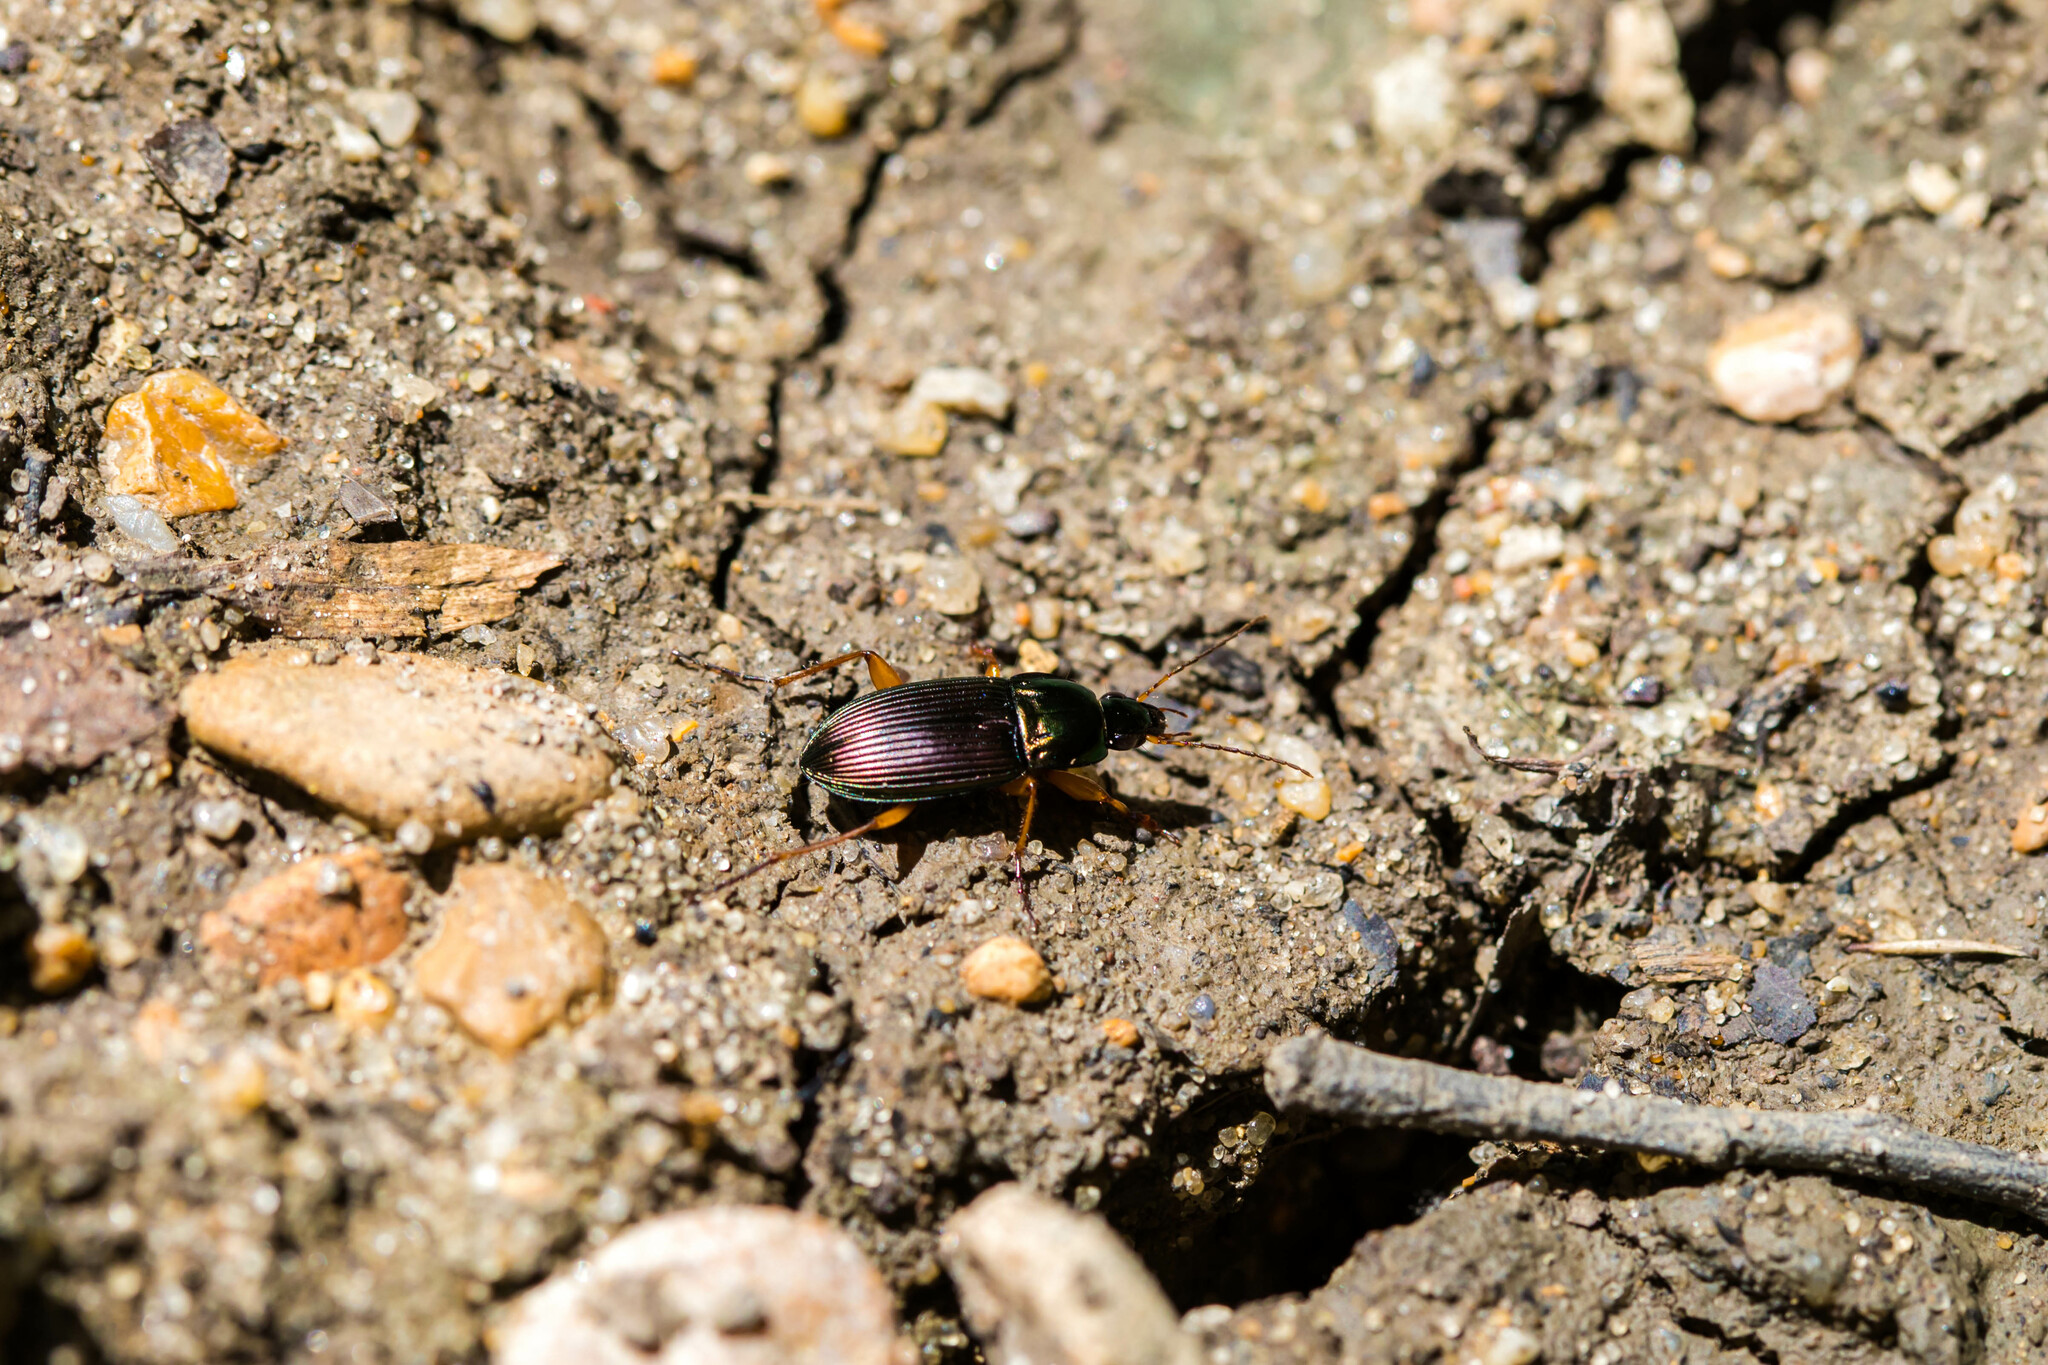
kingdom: Animalia
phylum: Arthropoda
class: Insecta
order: Coleoptera
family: Carabidae
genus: Poecilus
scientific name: Poecilus lucublandus
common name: Woodland ground beetle
